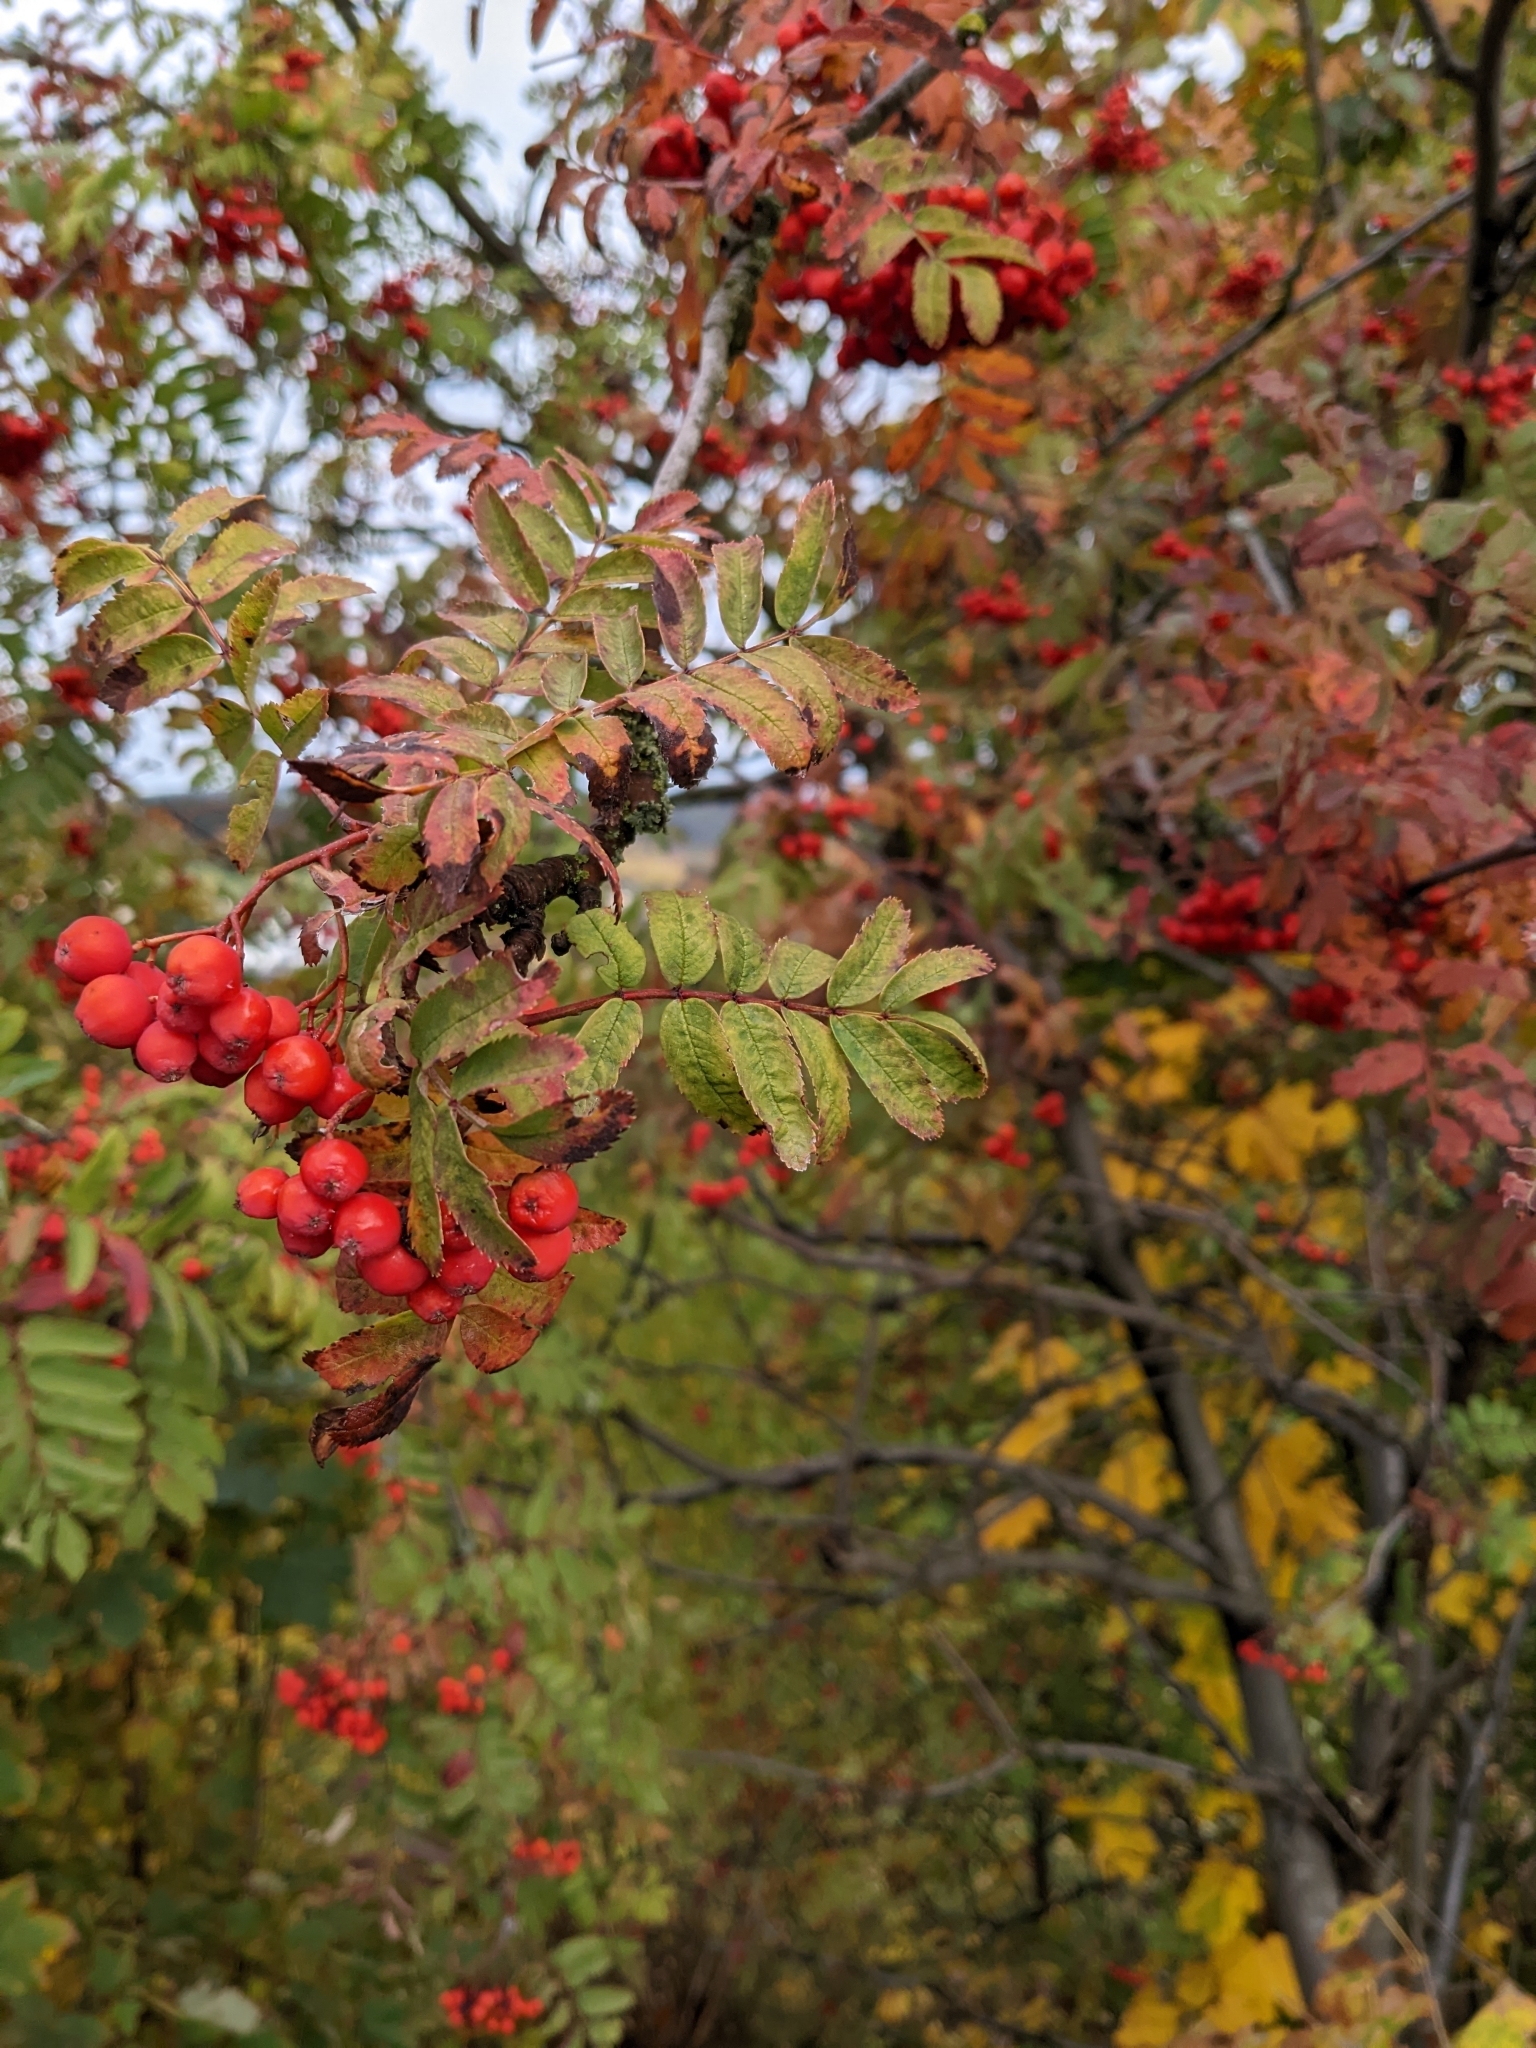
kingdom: Plantae
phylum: Tracheophyta
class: Magnoliopsida
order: Rosales
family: Rosaceae
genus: Sorbus
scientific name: Sorbus aucuparia
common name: Rowan
